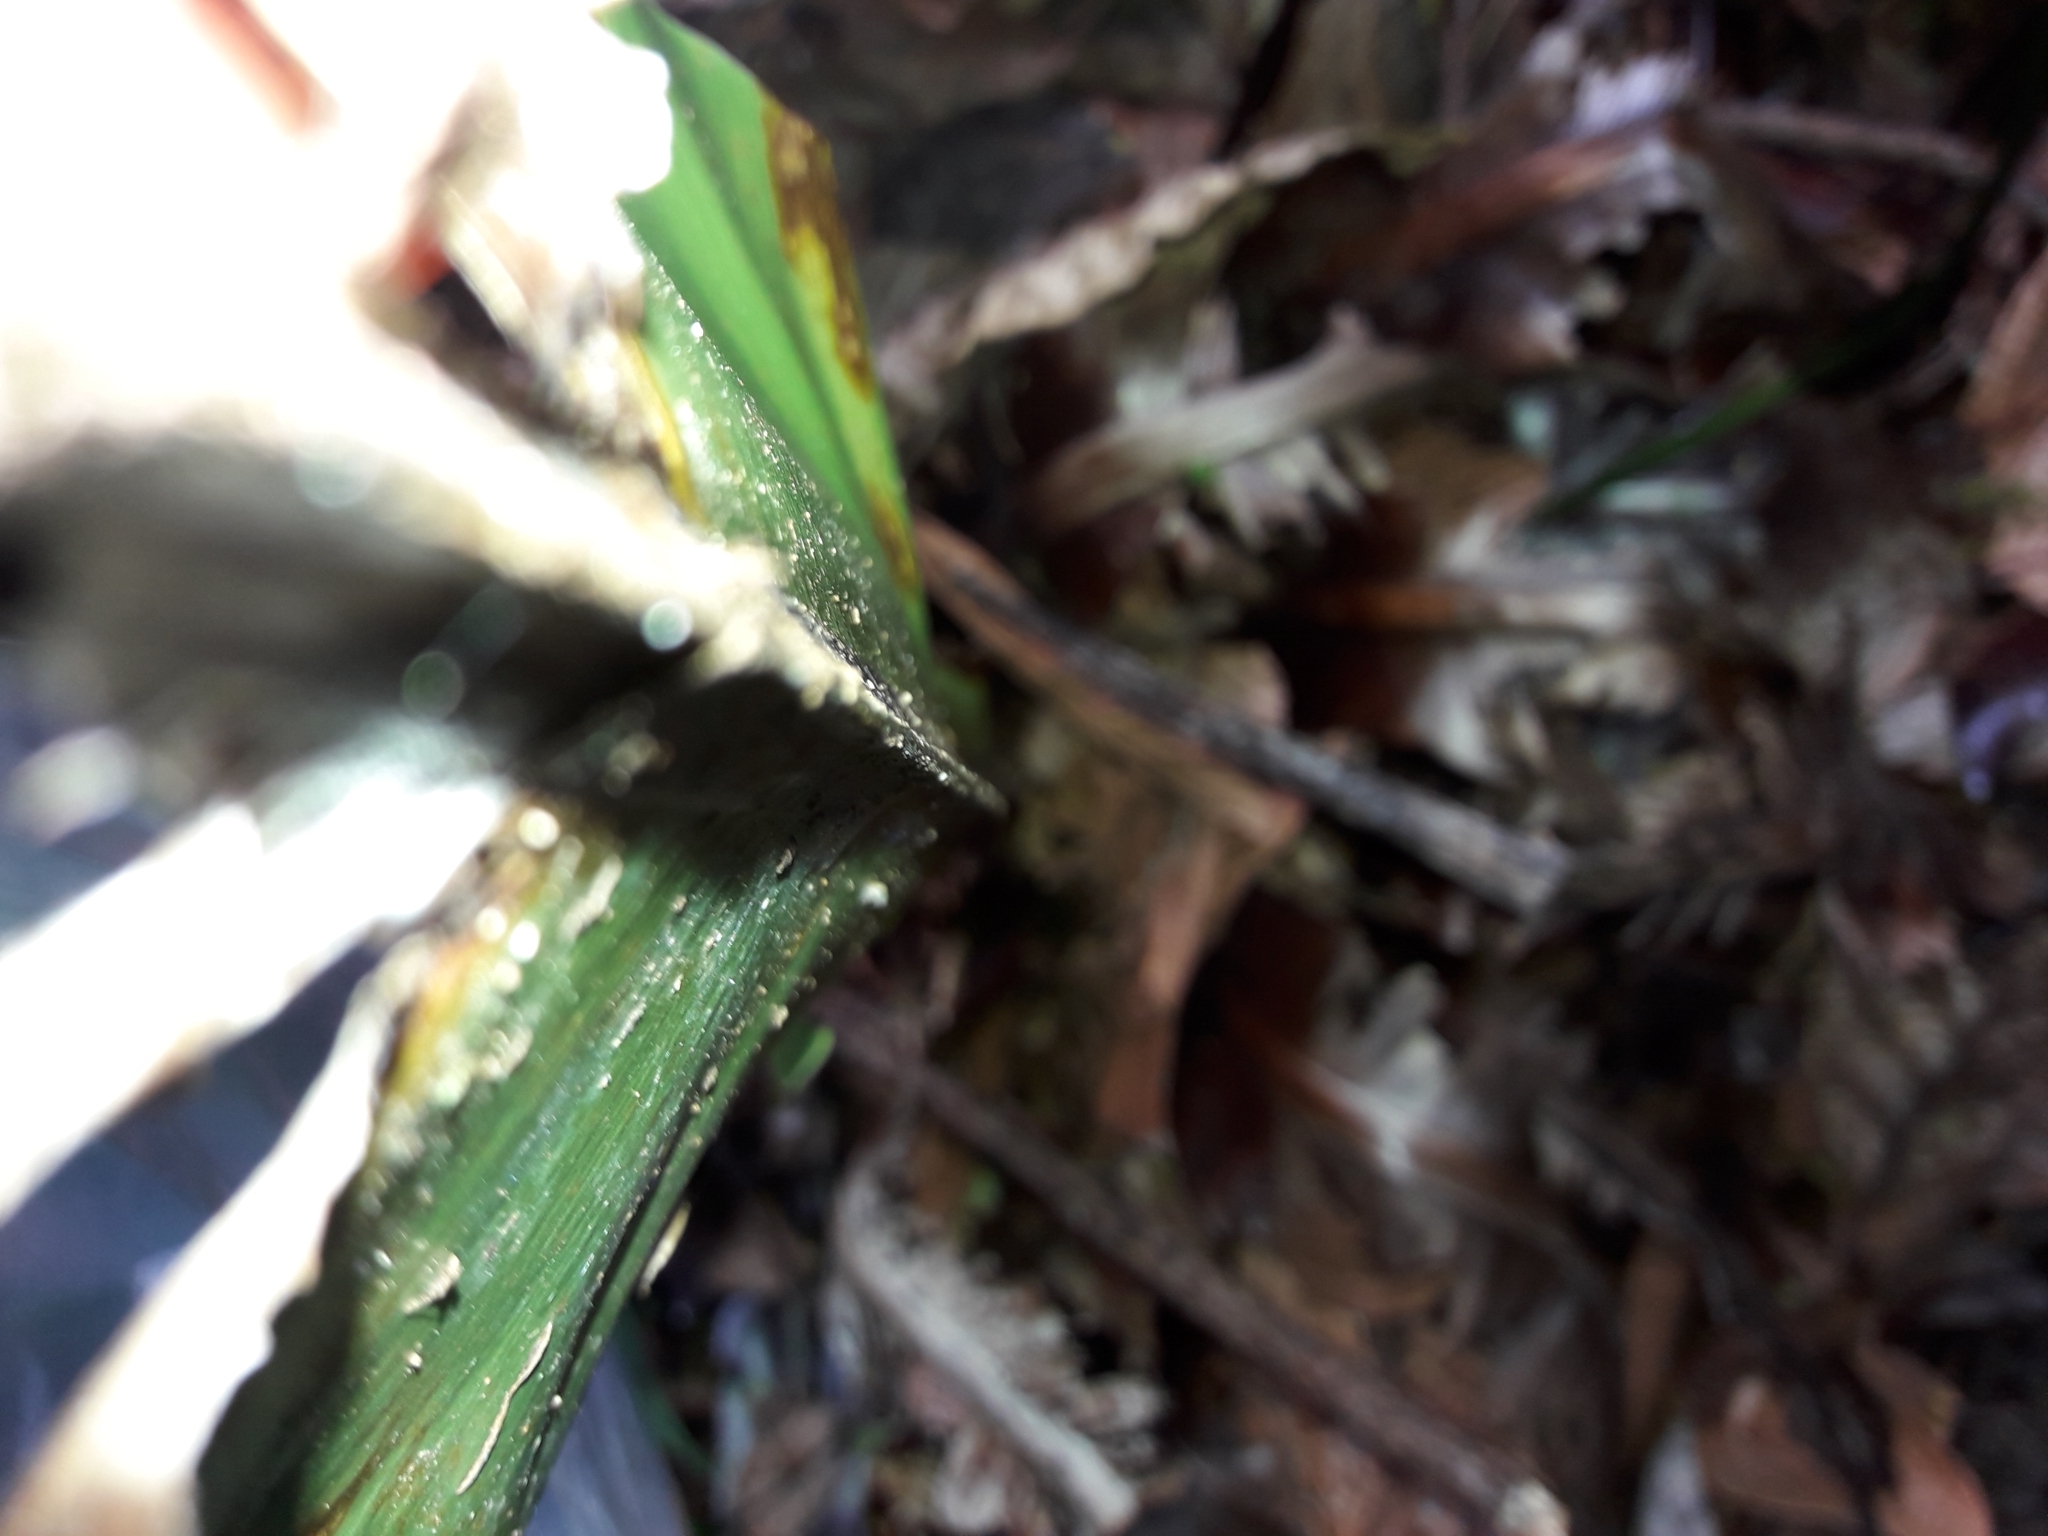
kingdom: Plantae
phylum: Tracheophyta
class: Polypodiopsida
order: Polypodiales
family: Aspleniaceae
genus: Asplenium
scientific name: Asplenium australasicum
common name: Bird's-nest fern
